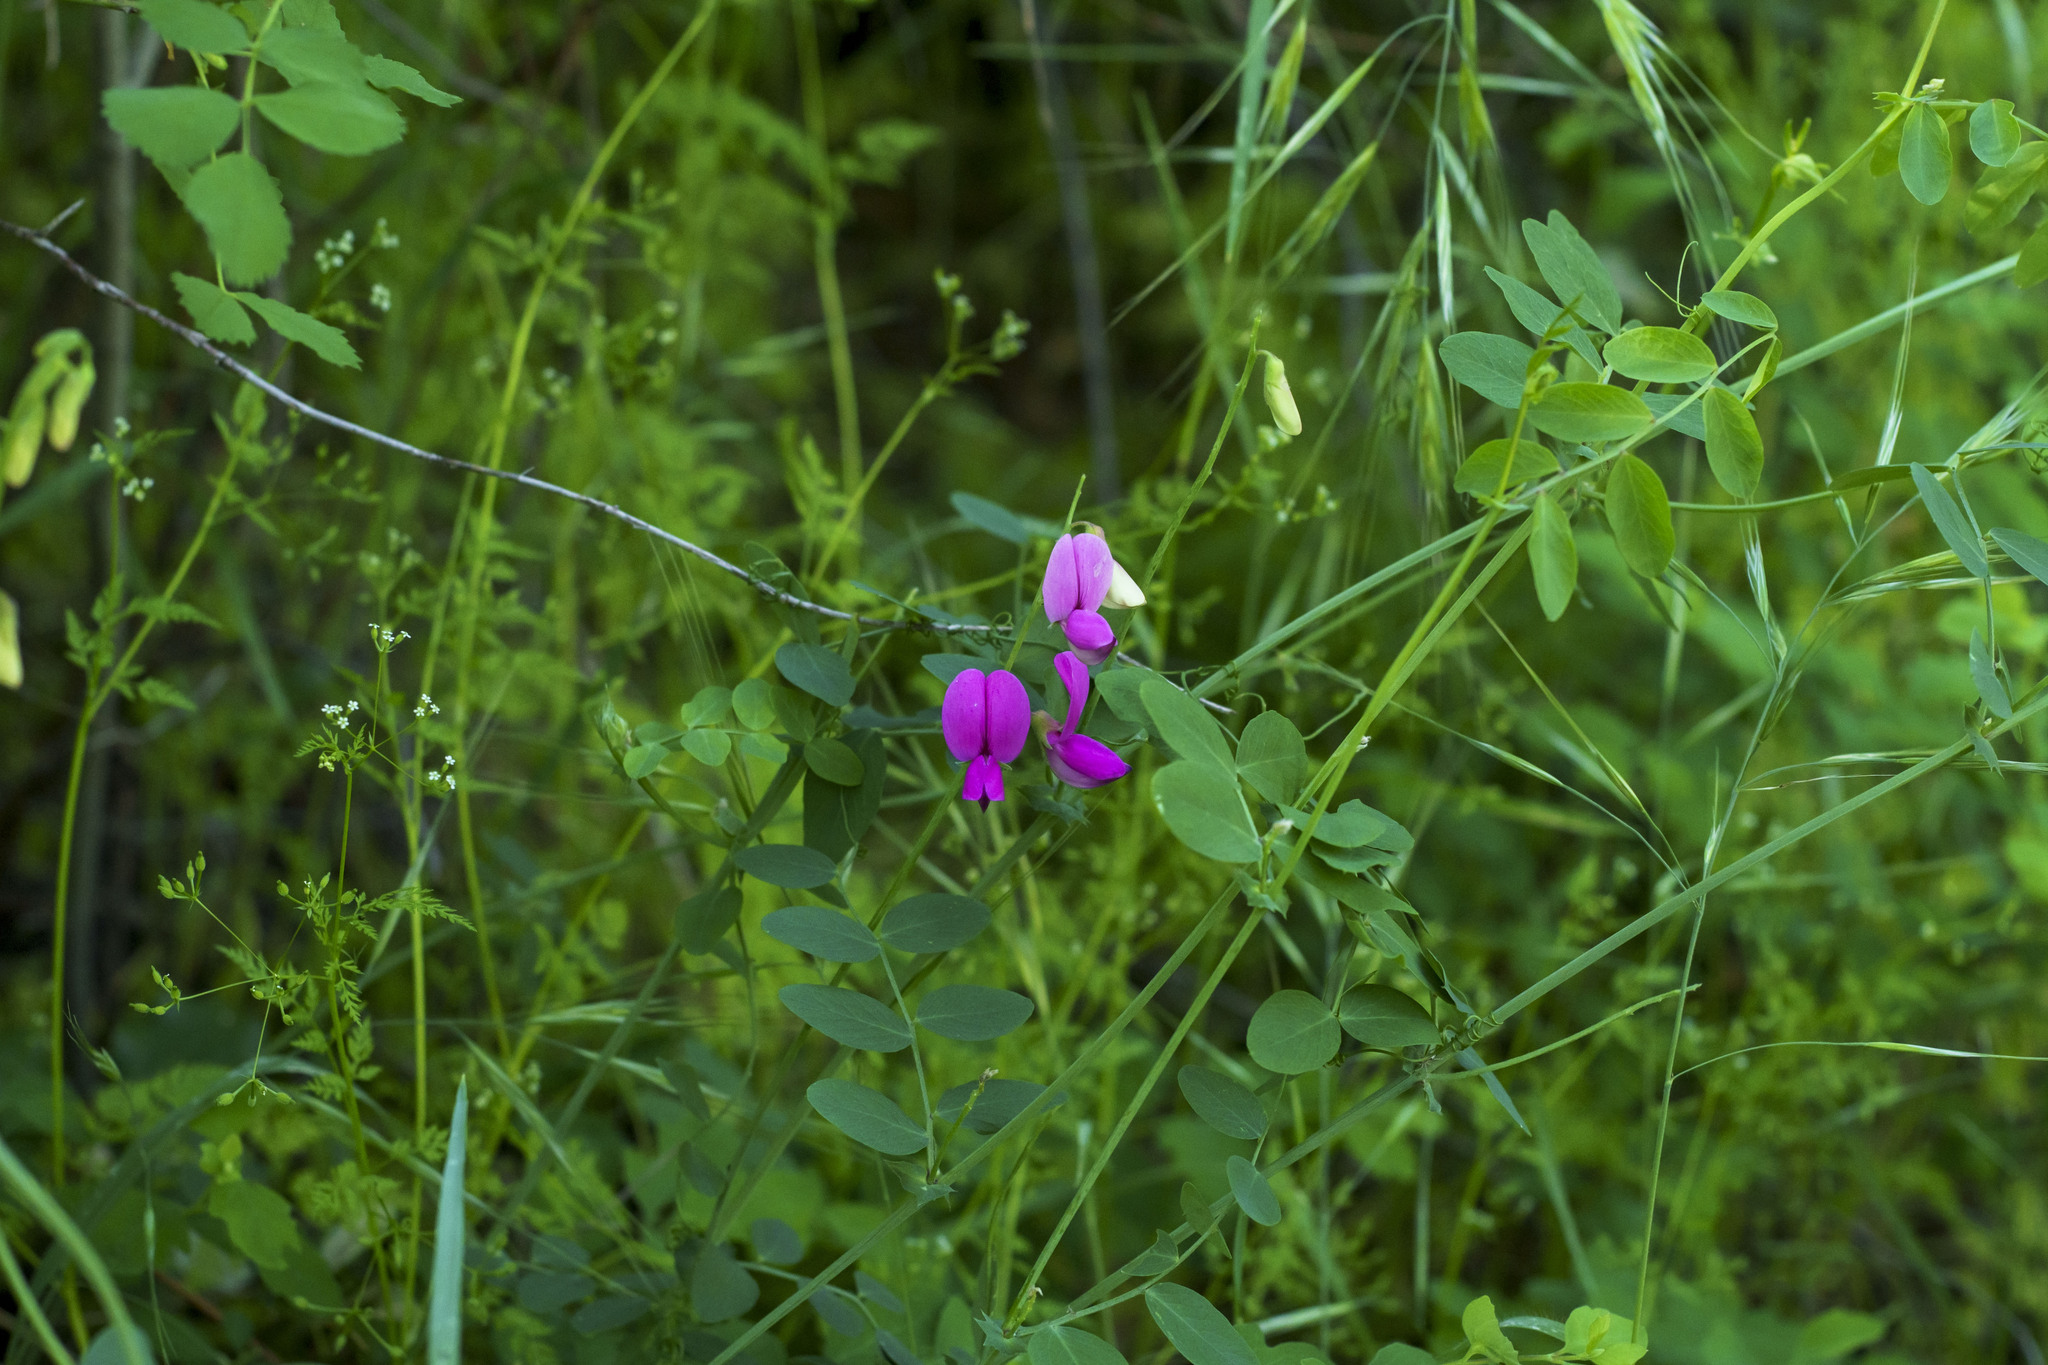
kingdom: Plantae
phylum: Tracheophyta
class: Magnoliopsida
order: Fabales
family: Fabaceae
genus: Lathyrus
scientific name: Lathyrus vestitus
